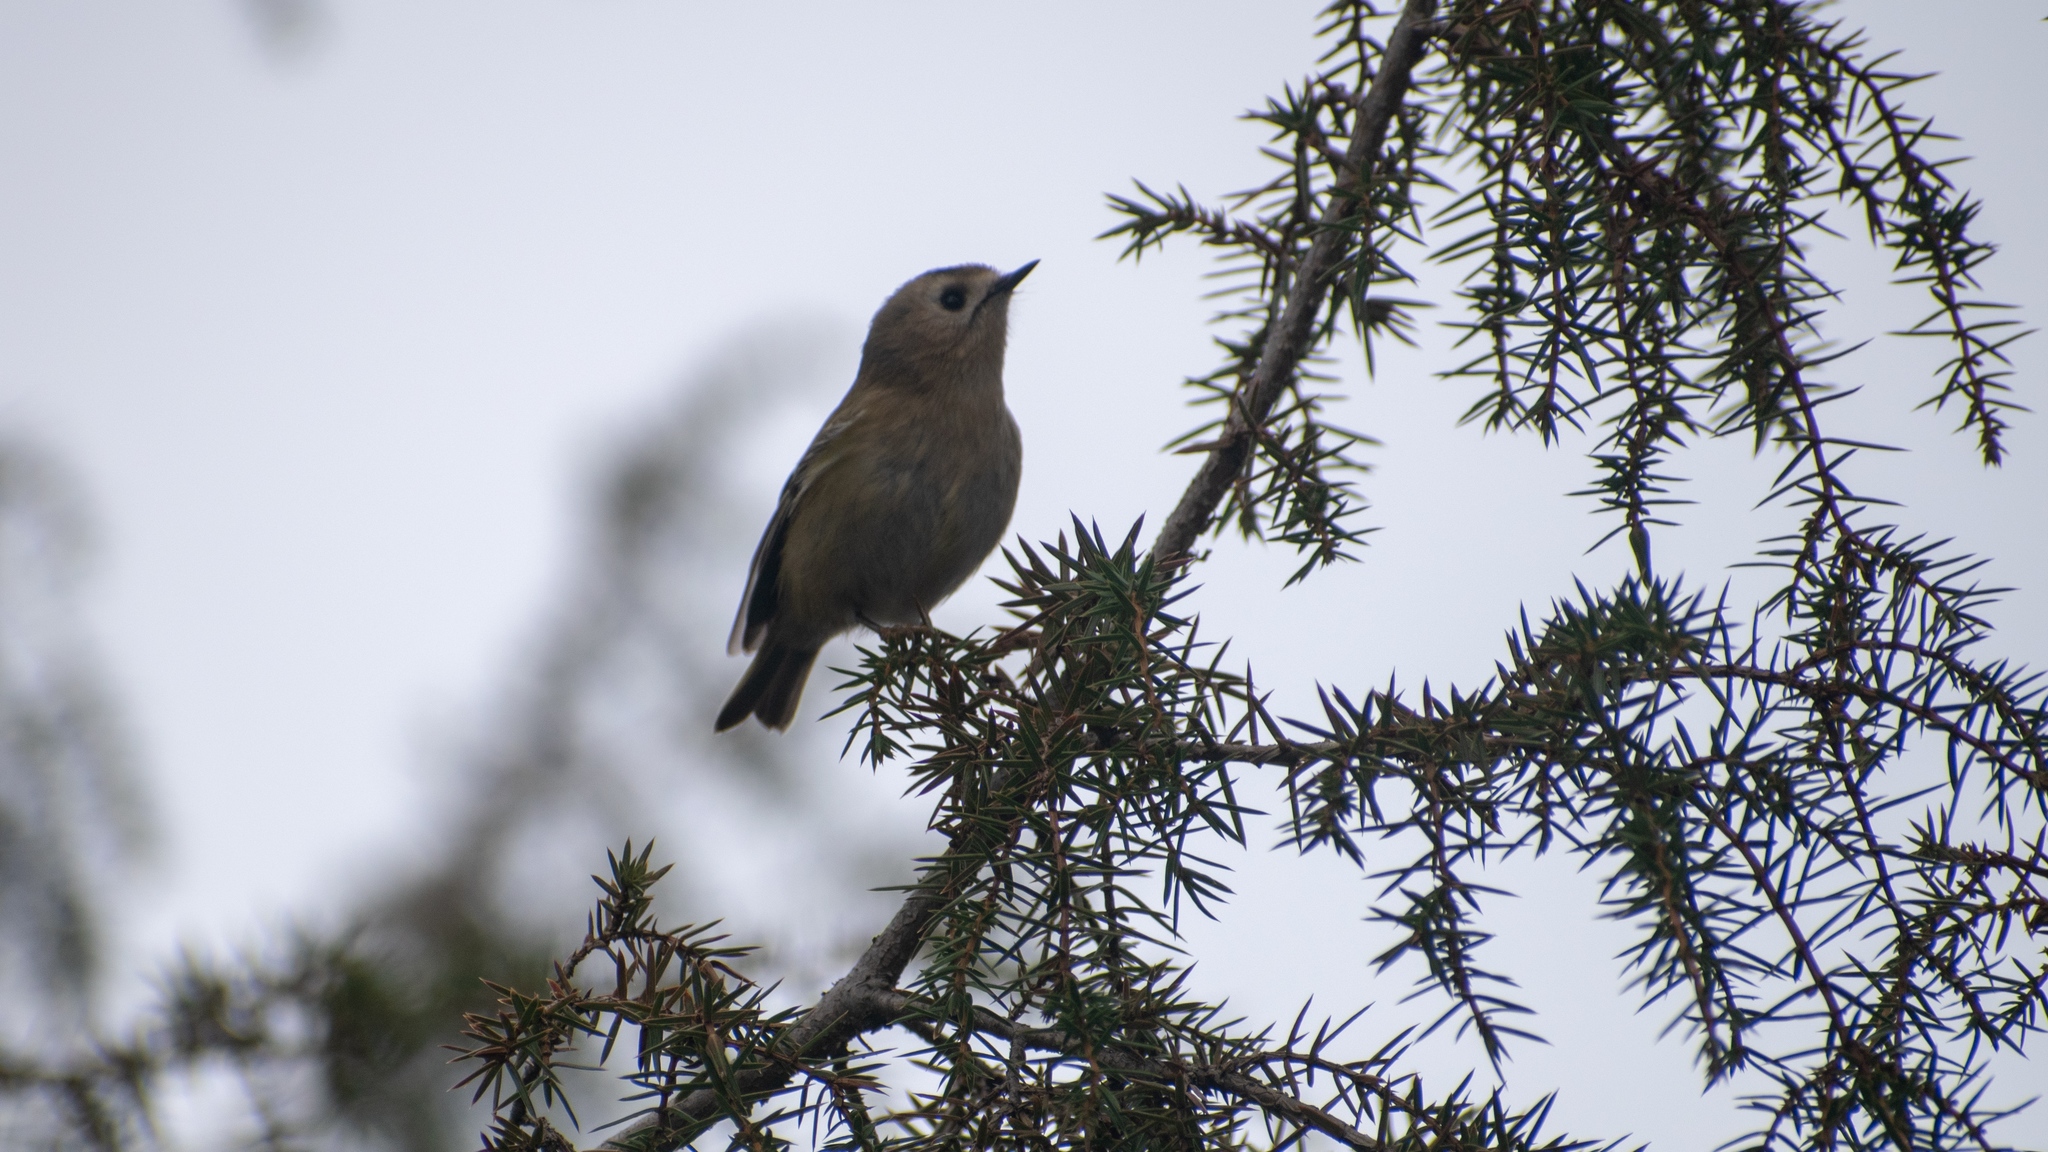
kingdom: Animalia
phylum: Chordata
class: Aves
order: Passeriformes
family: Regulidae
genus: Regulus
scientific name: Regulus regulus
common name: Goldcrest
